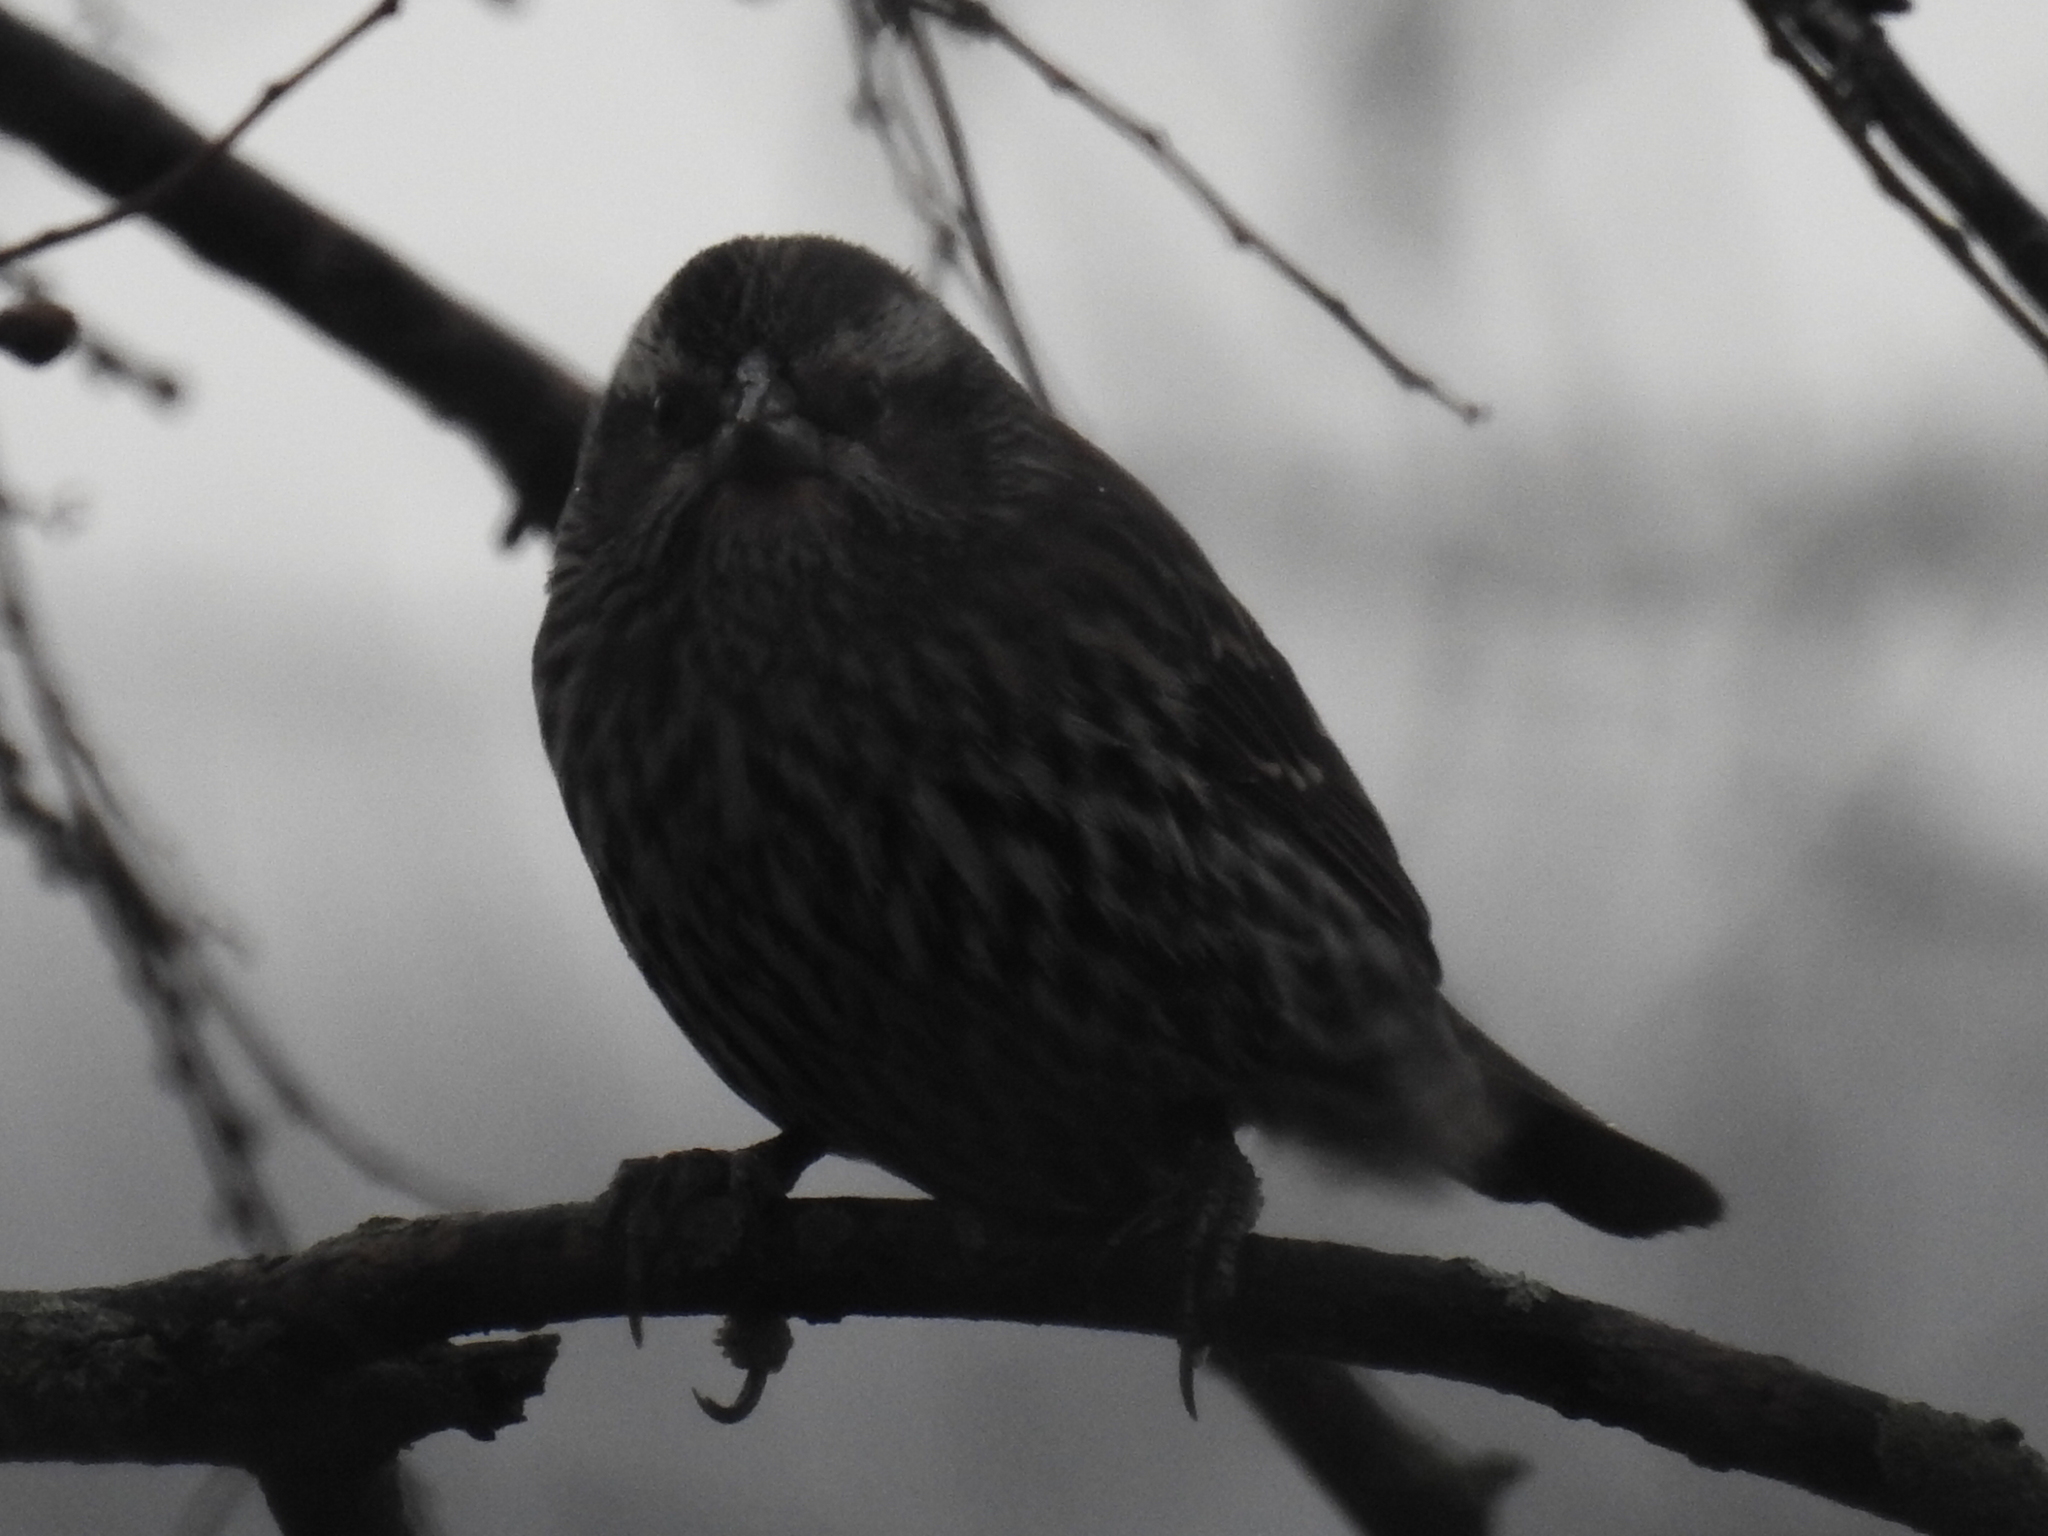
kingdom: Animalia
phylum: Chordata
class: Aves
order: Passeriformes
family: Icteridae
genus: Agelaius
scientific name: Agelaius phoeniceus
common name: Red-winged blackbird
